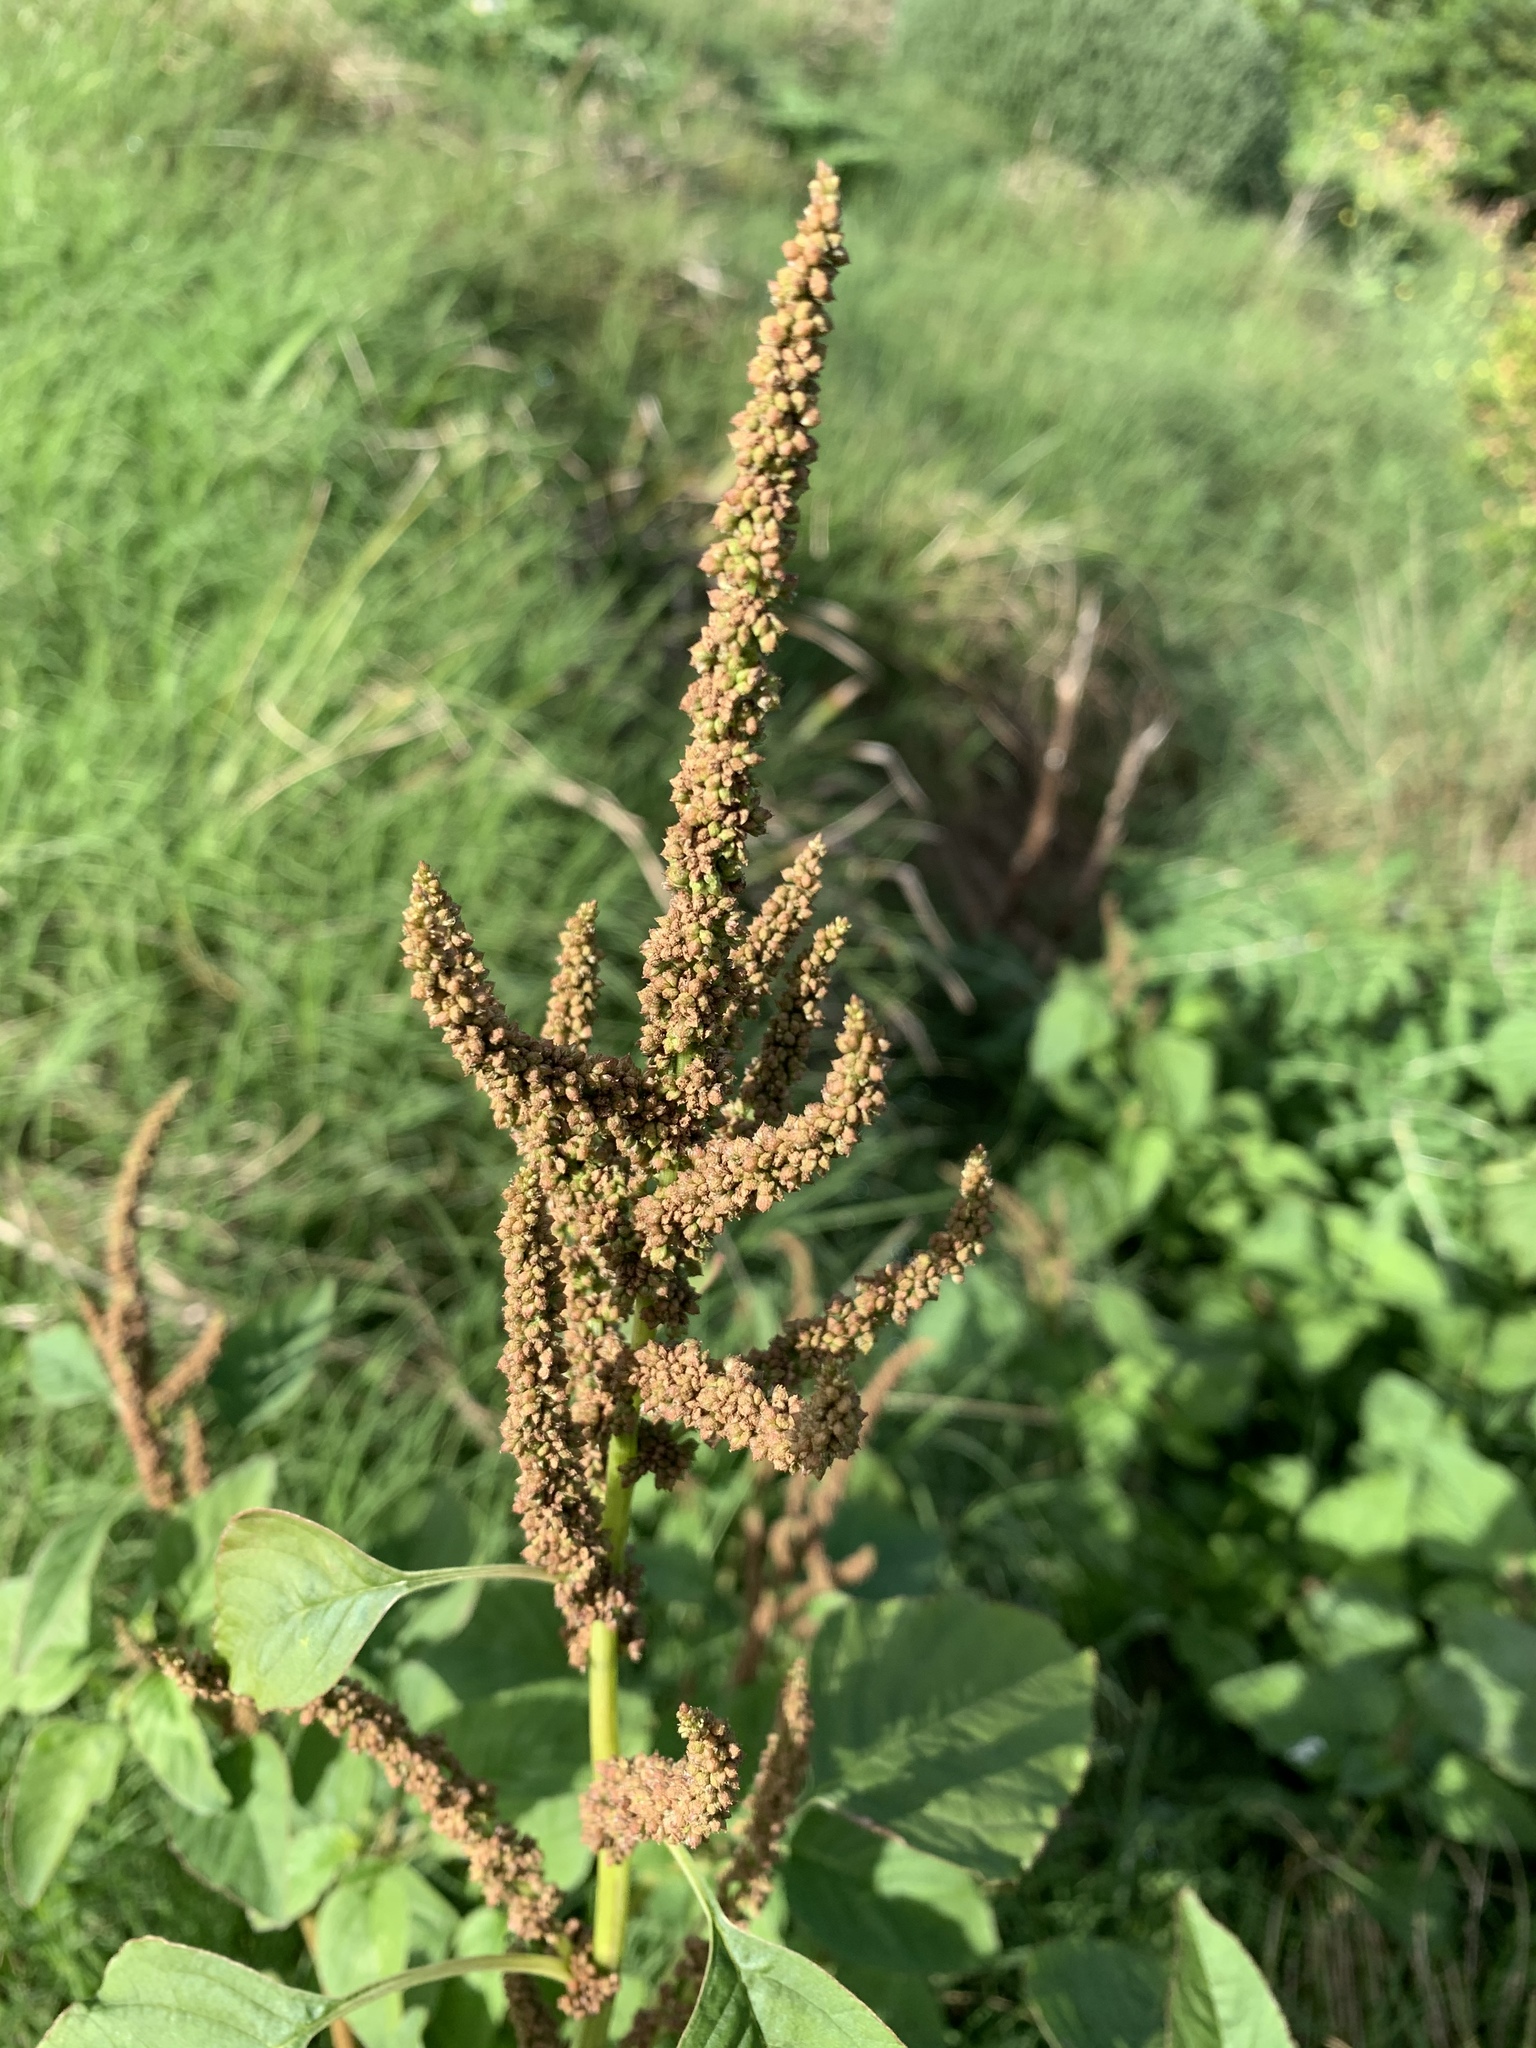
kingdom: Plantae
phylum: Tracheophyta
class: Magnoliopsida
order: Caryophyllales
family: Amaranthaceae
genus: Amaranthus
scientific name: Amaranthus viridis
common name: Slender amaranth
